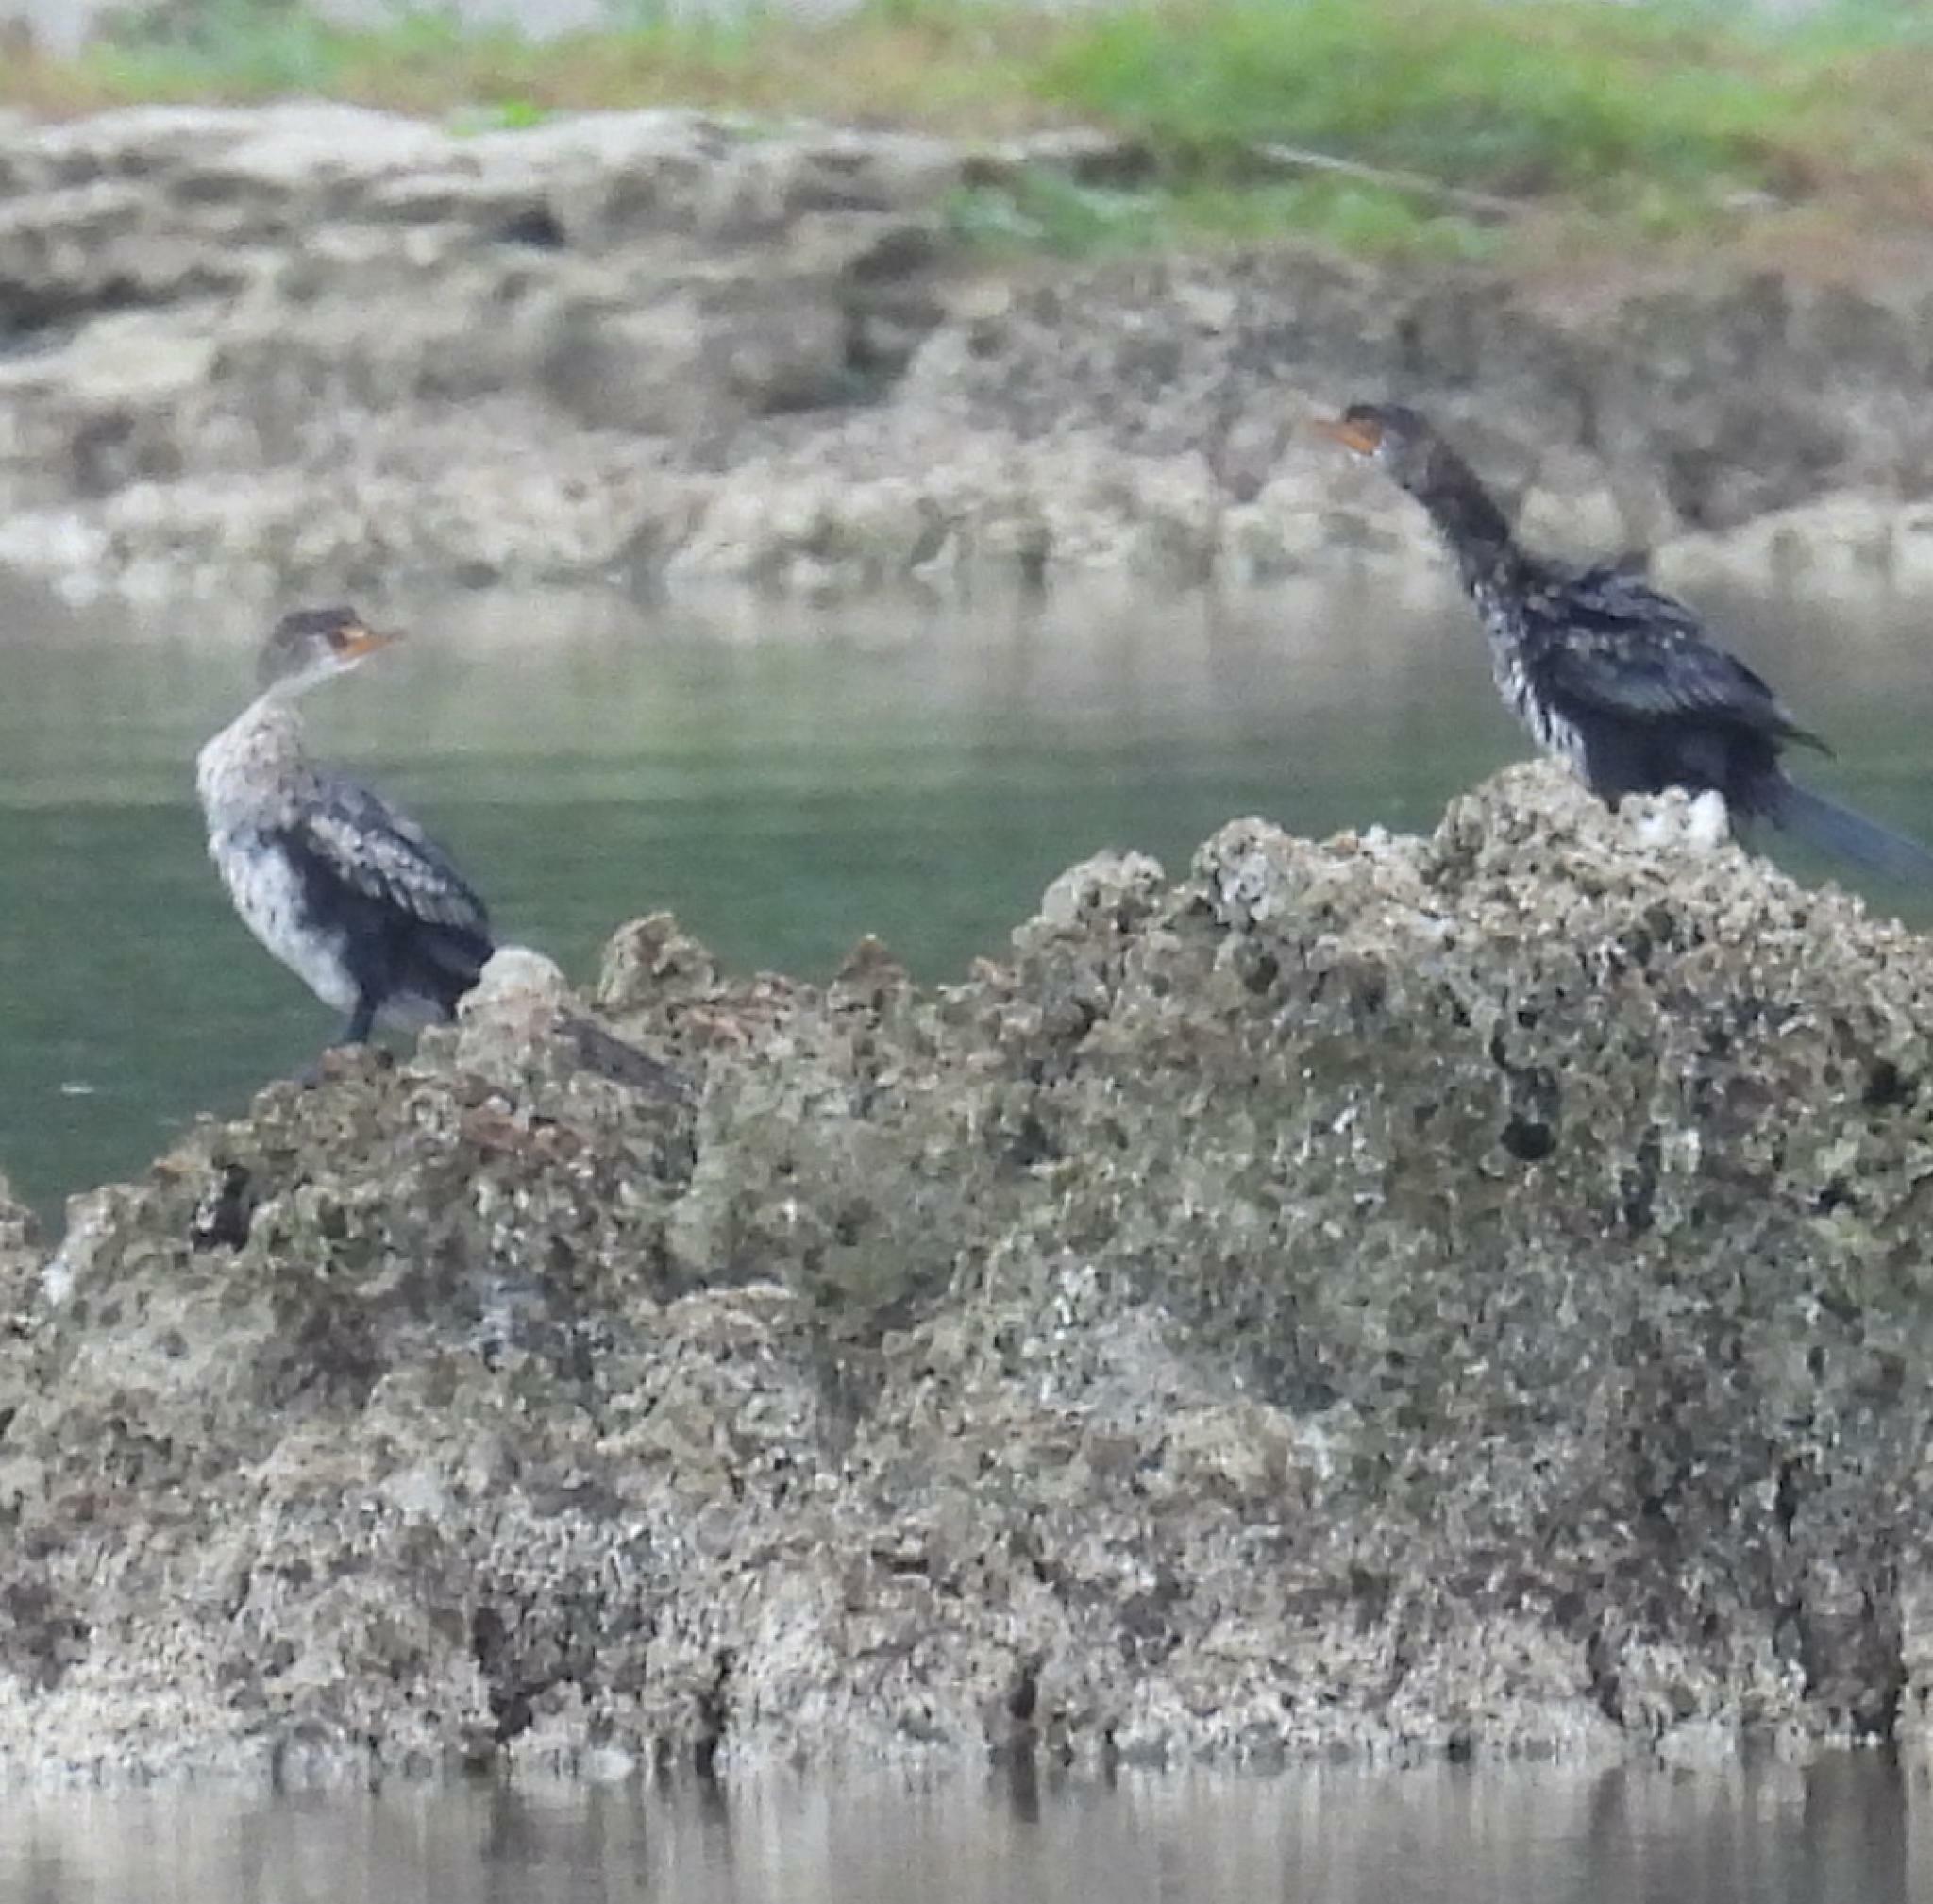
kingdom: Animalia
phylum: Chordata
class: Aves
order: Suliformes
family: Phalacrocoracidae
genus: Microcarbo
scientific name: Microcarbo africanus
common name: Long-tailed cormorant
